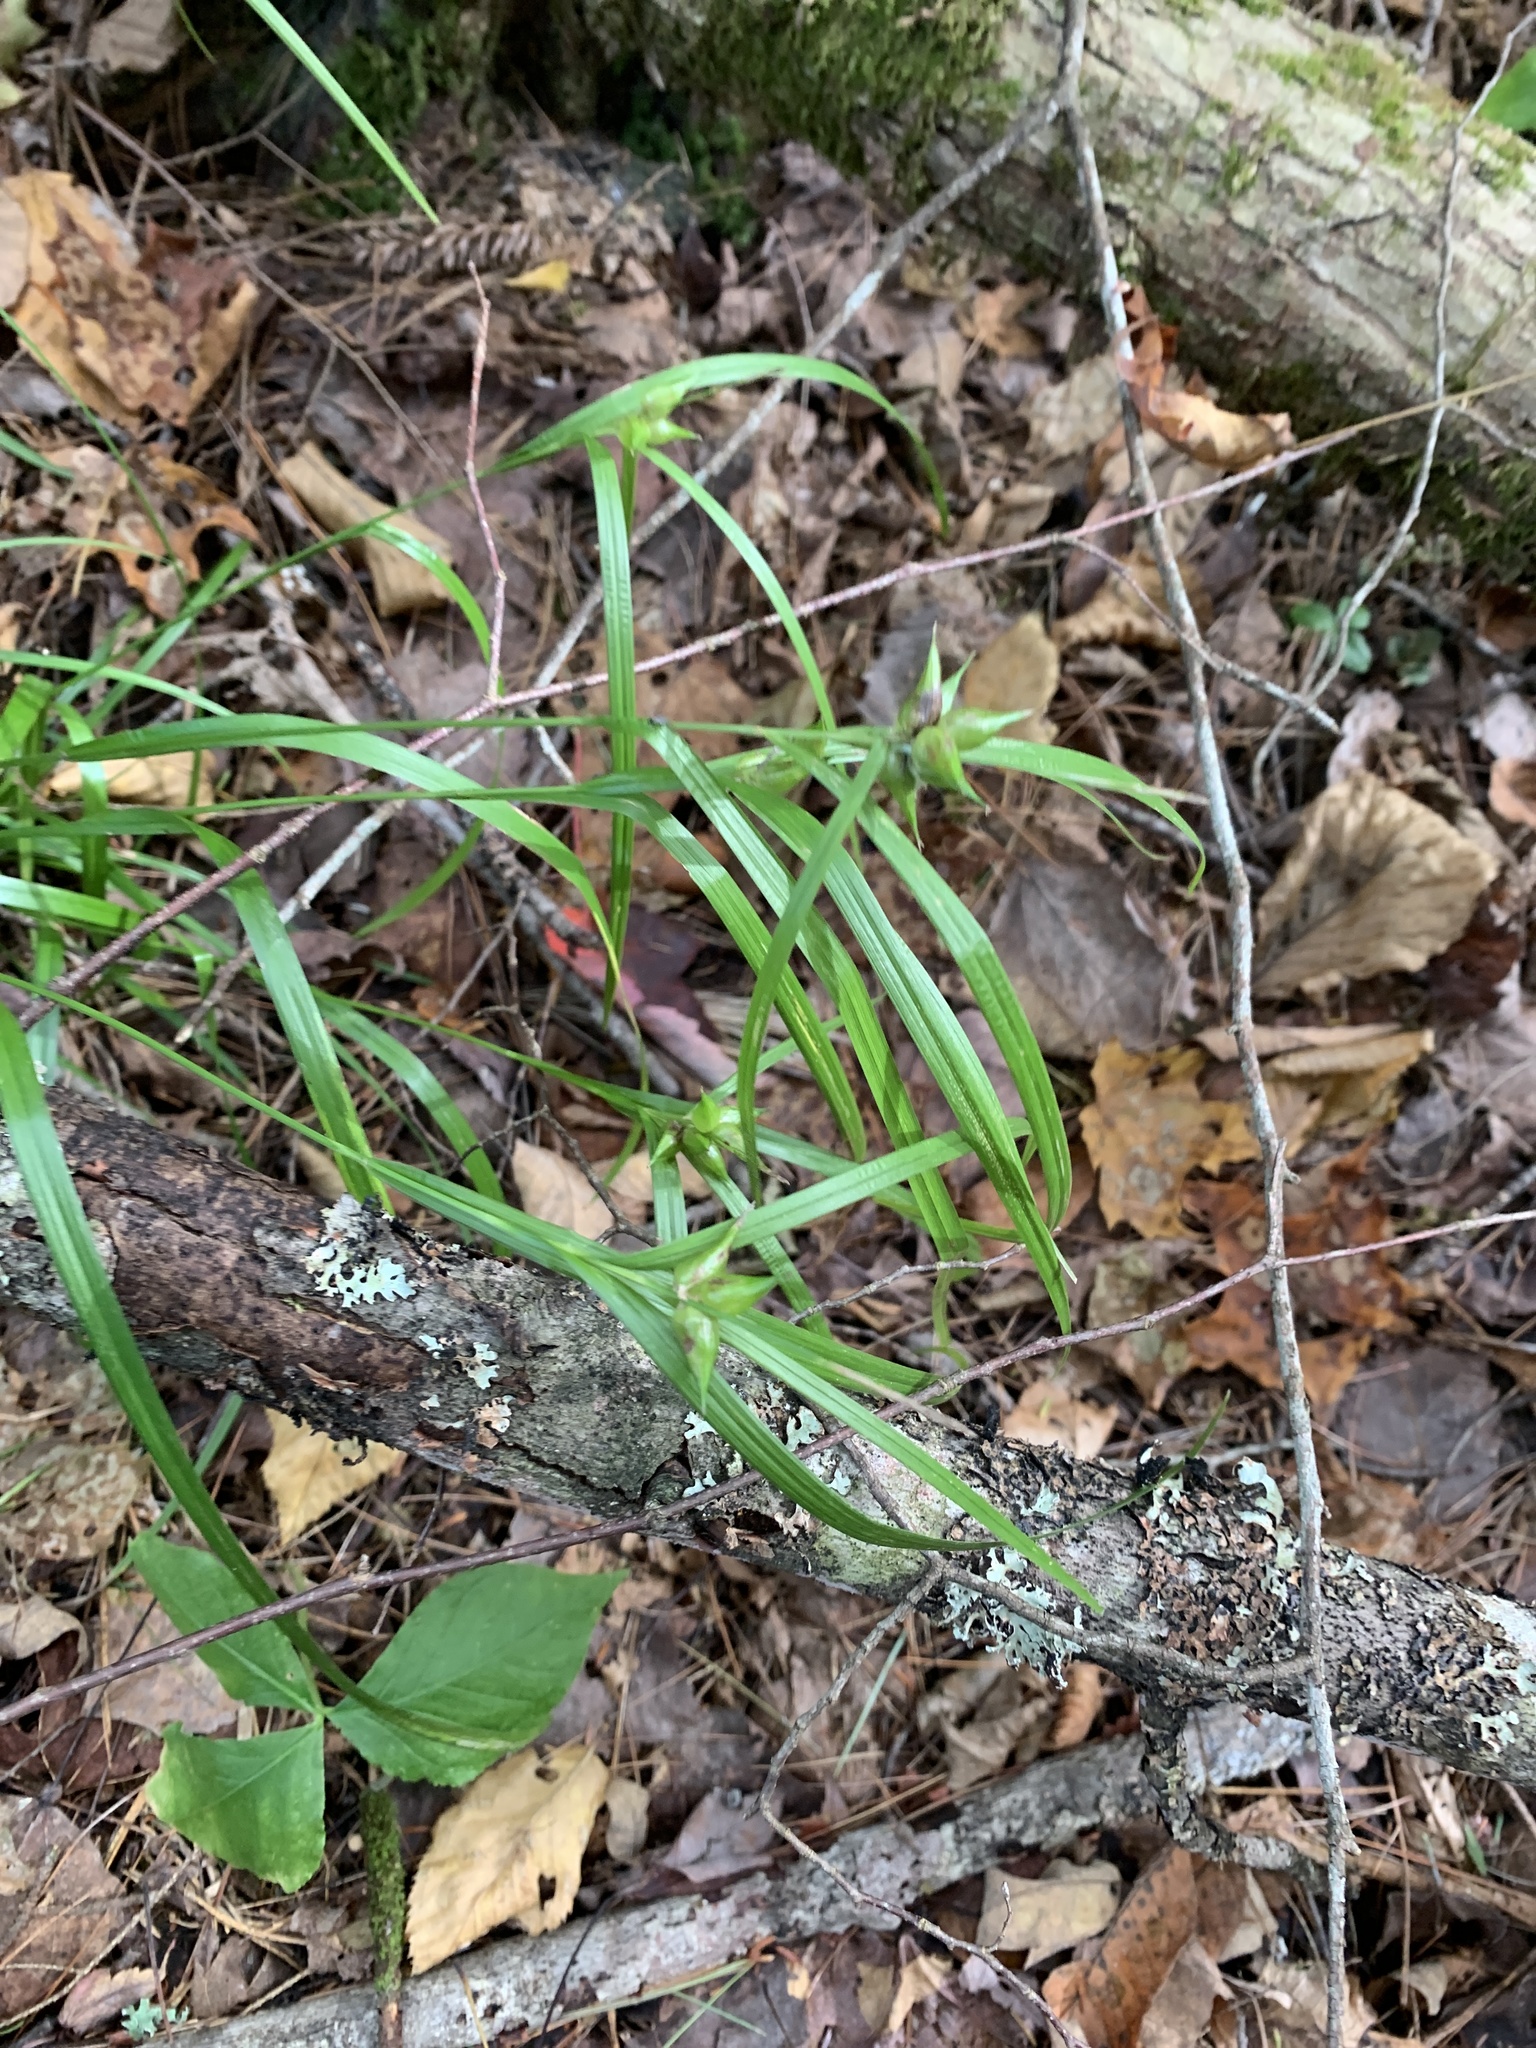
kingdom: Plantae
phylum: Tracheophyta
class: Liliopsida
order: Poales
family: Cyperaceae
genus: Carex
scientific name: Carex intumescens
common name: Greater bladder sedge
